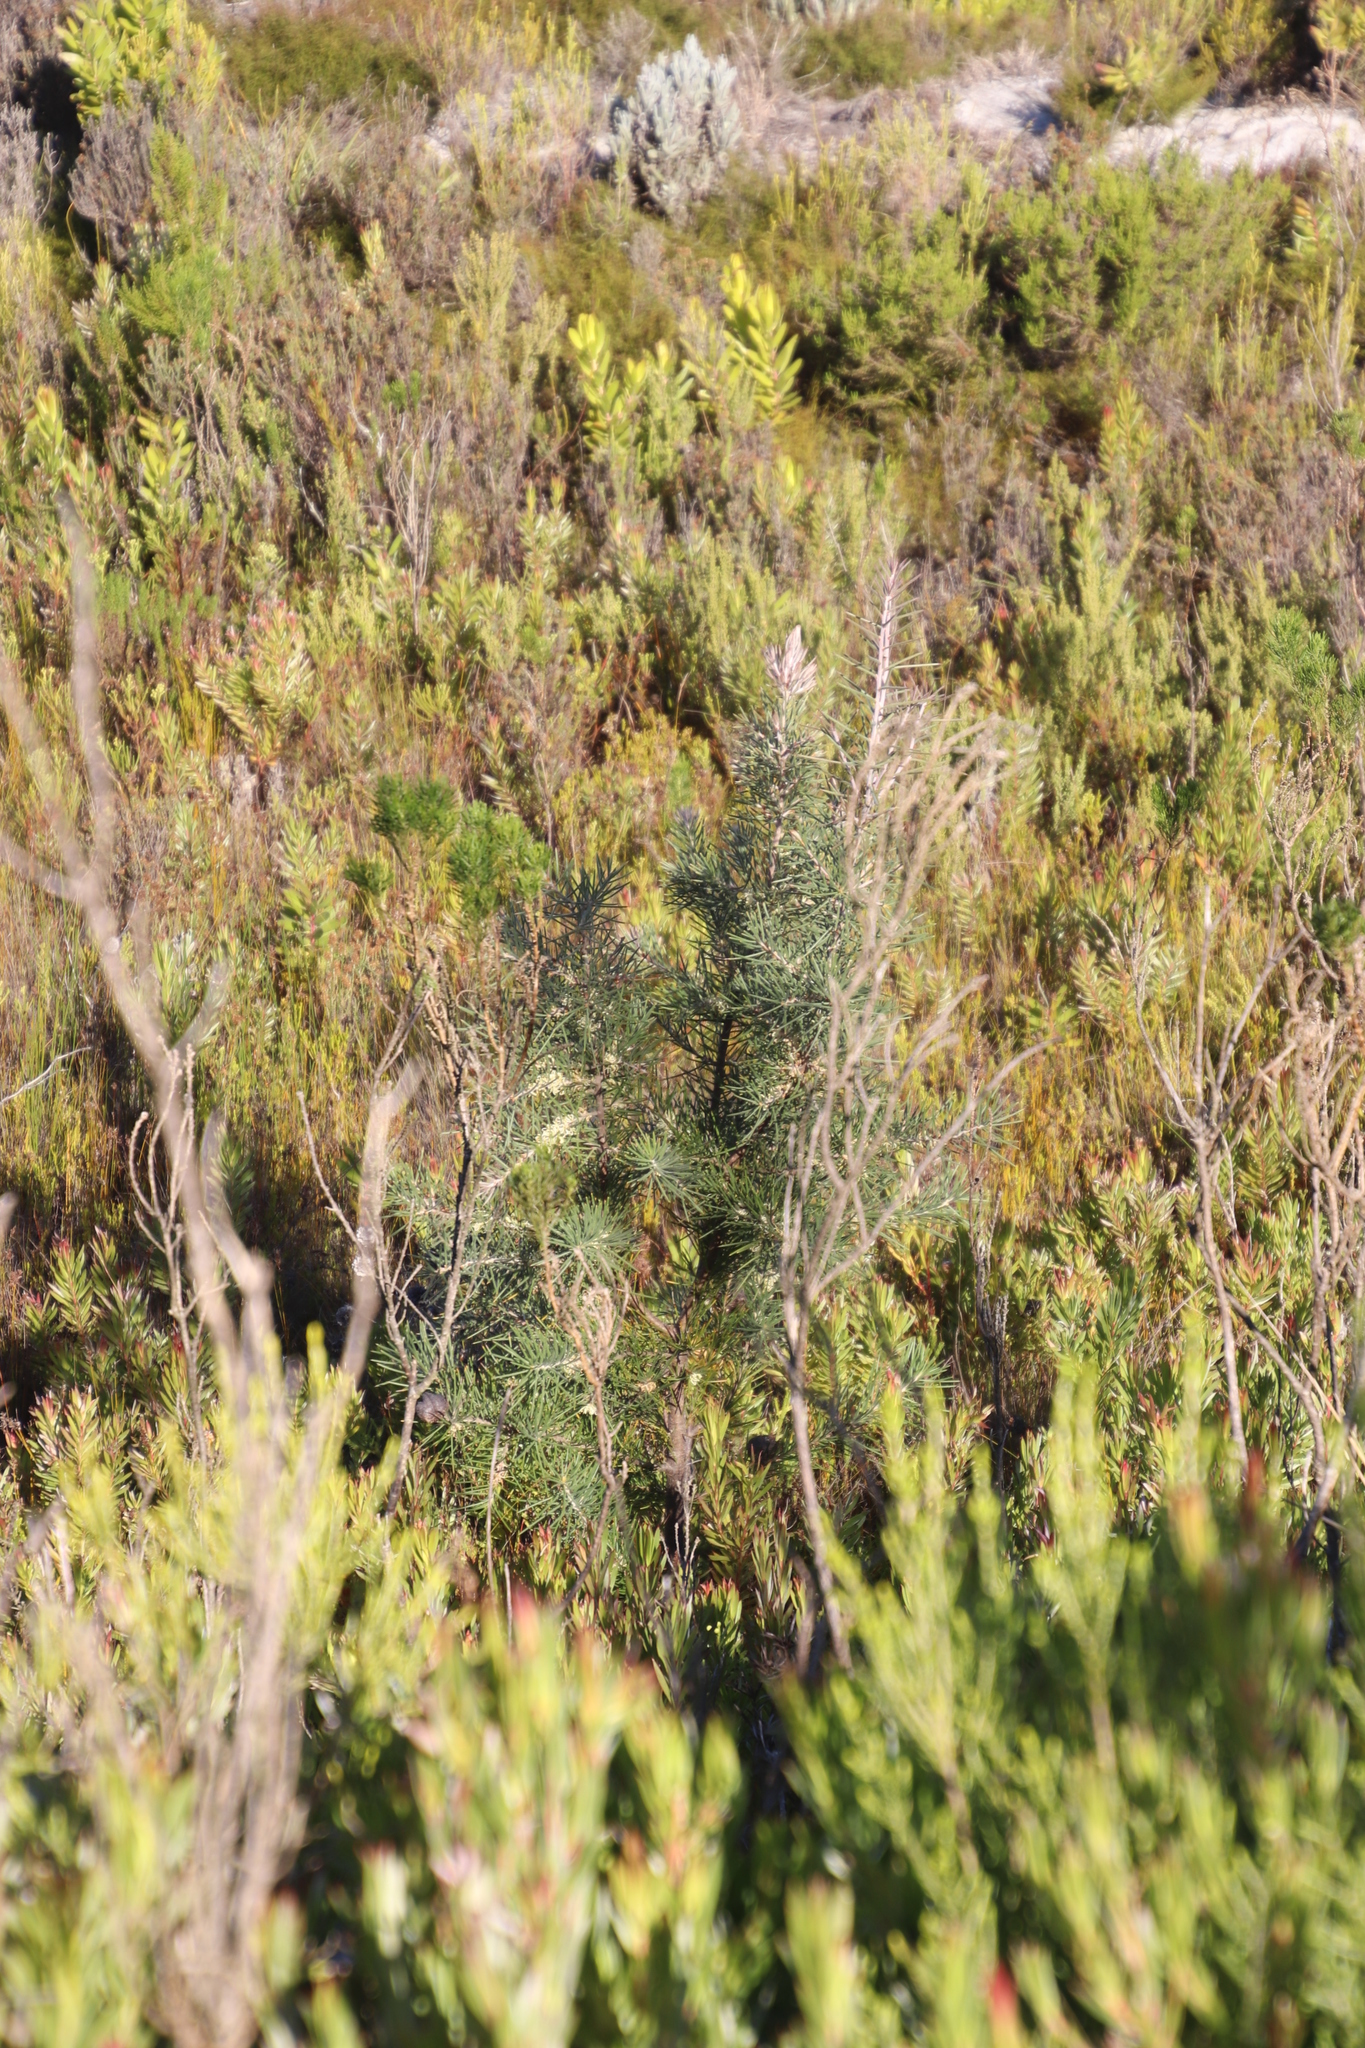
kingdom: Plantae
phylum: Tracheophyta
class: Magnoliopsida
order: Proteales
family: Proteaceae
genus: Hakea
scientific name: Hakea gibbosa
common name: Rock hakea
